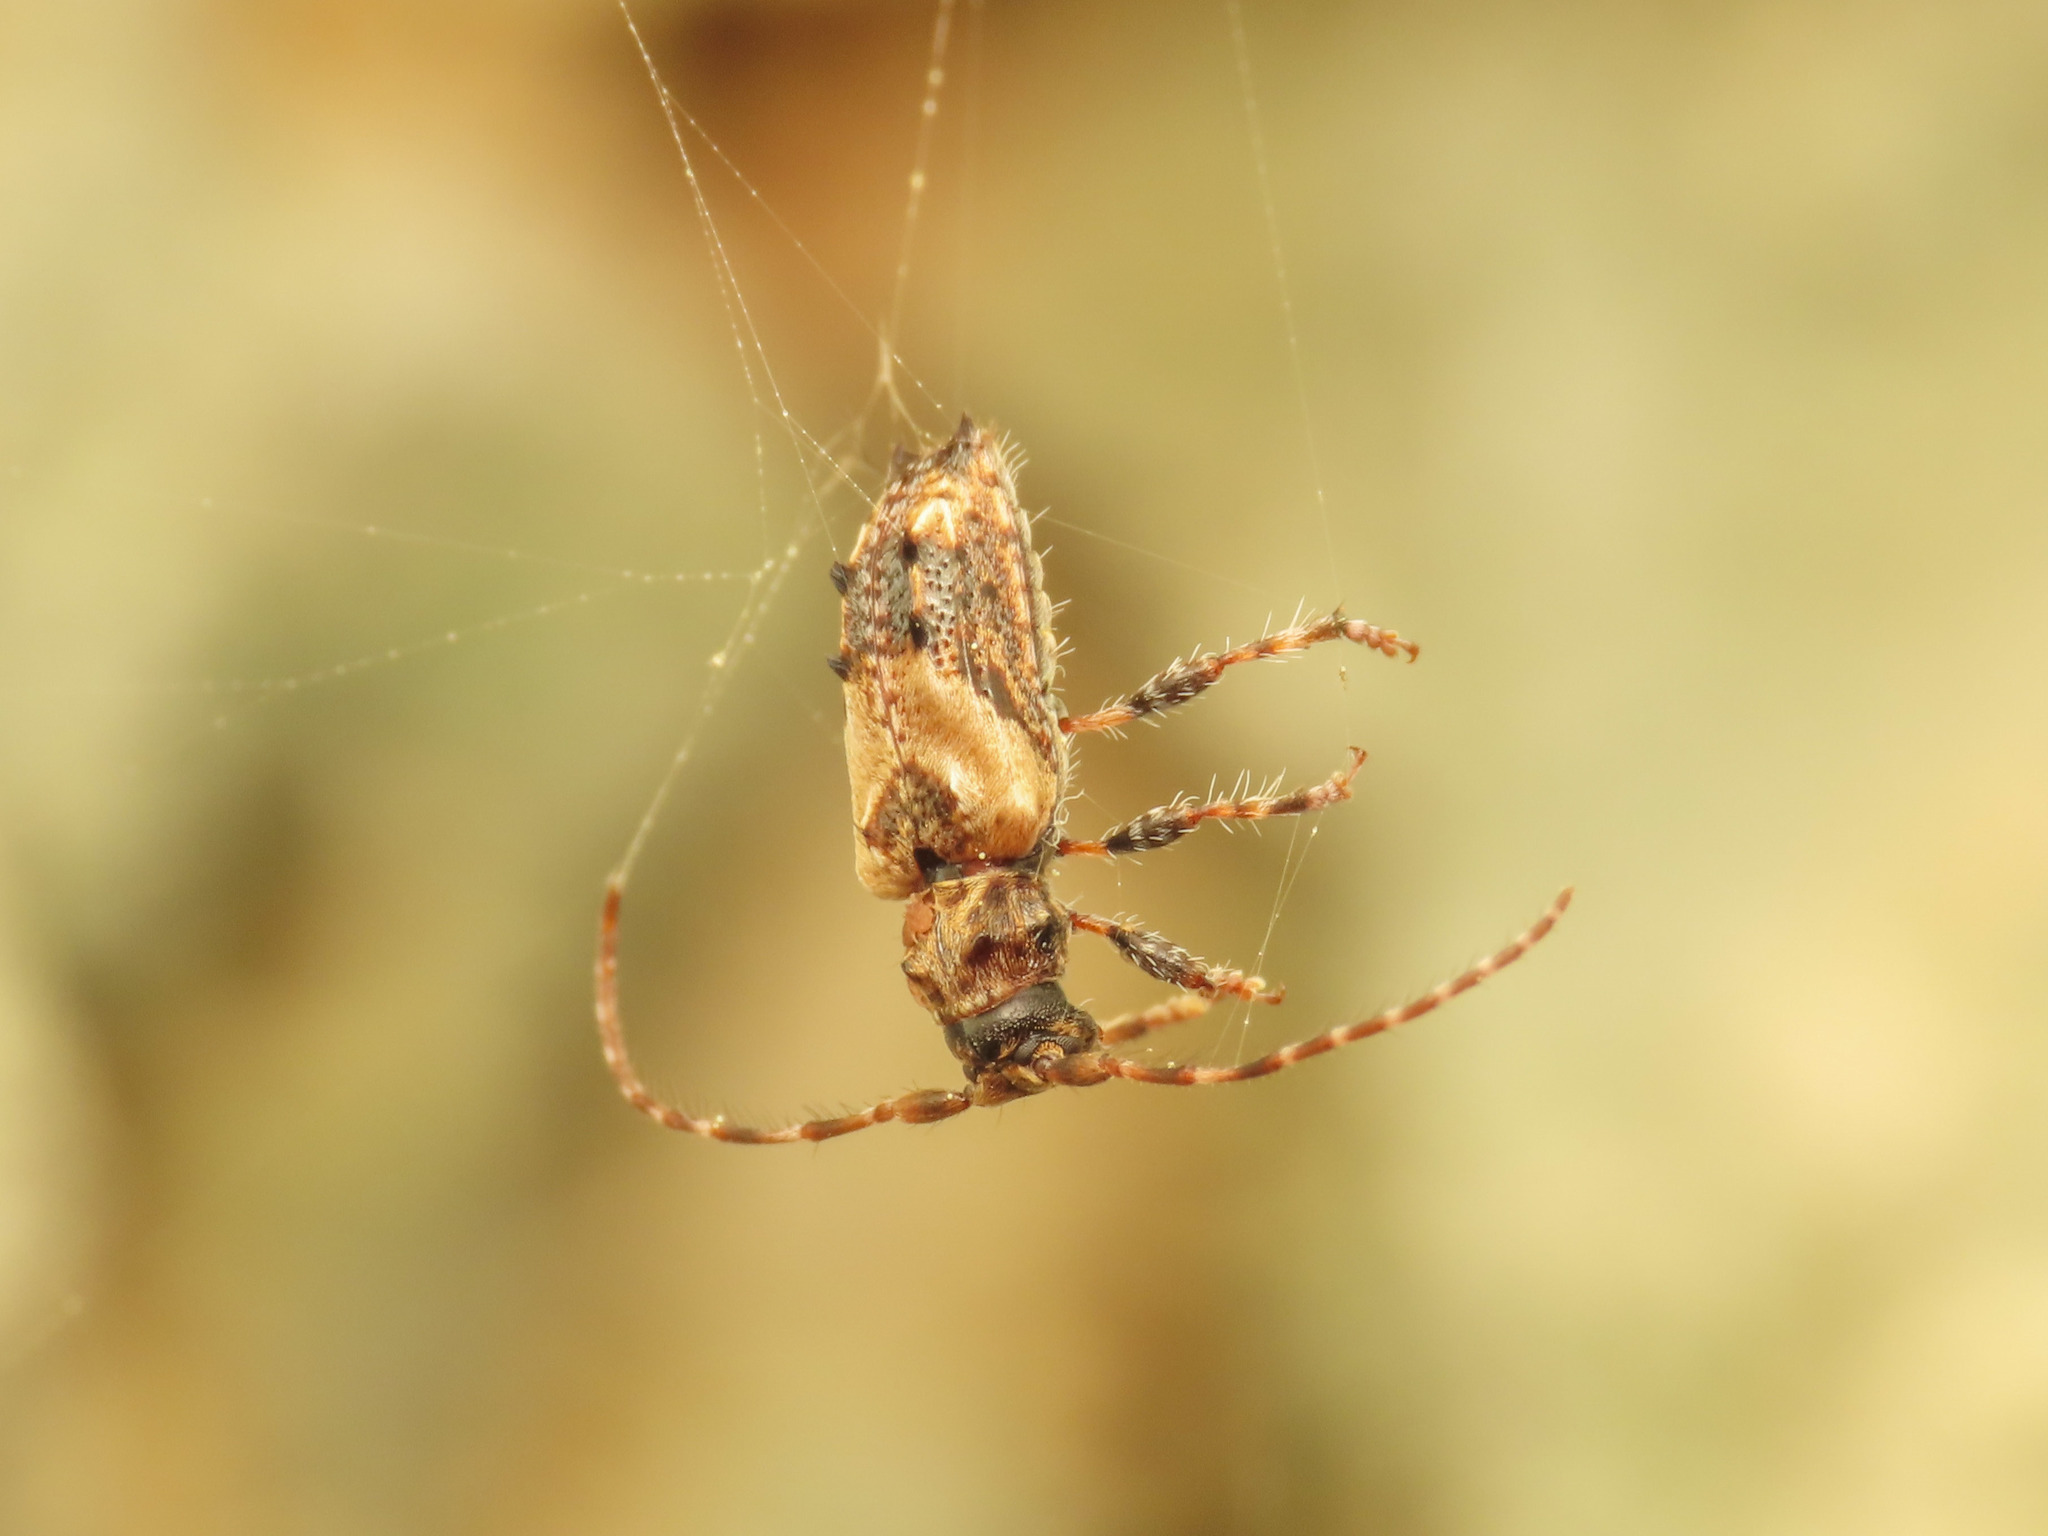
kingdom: Animalia
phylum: Arthropoda
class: Insecta
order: Coleoptera
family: Cerambycidae
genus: Pogonocherus
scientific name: Pogonocherus hispidus
